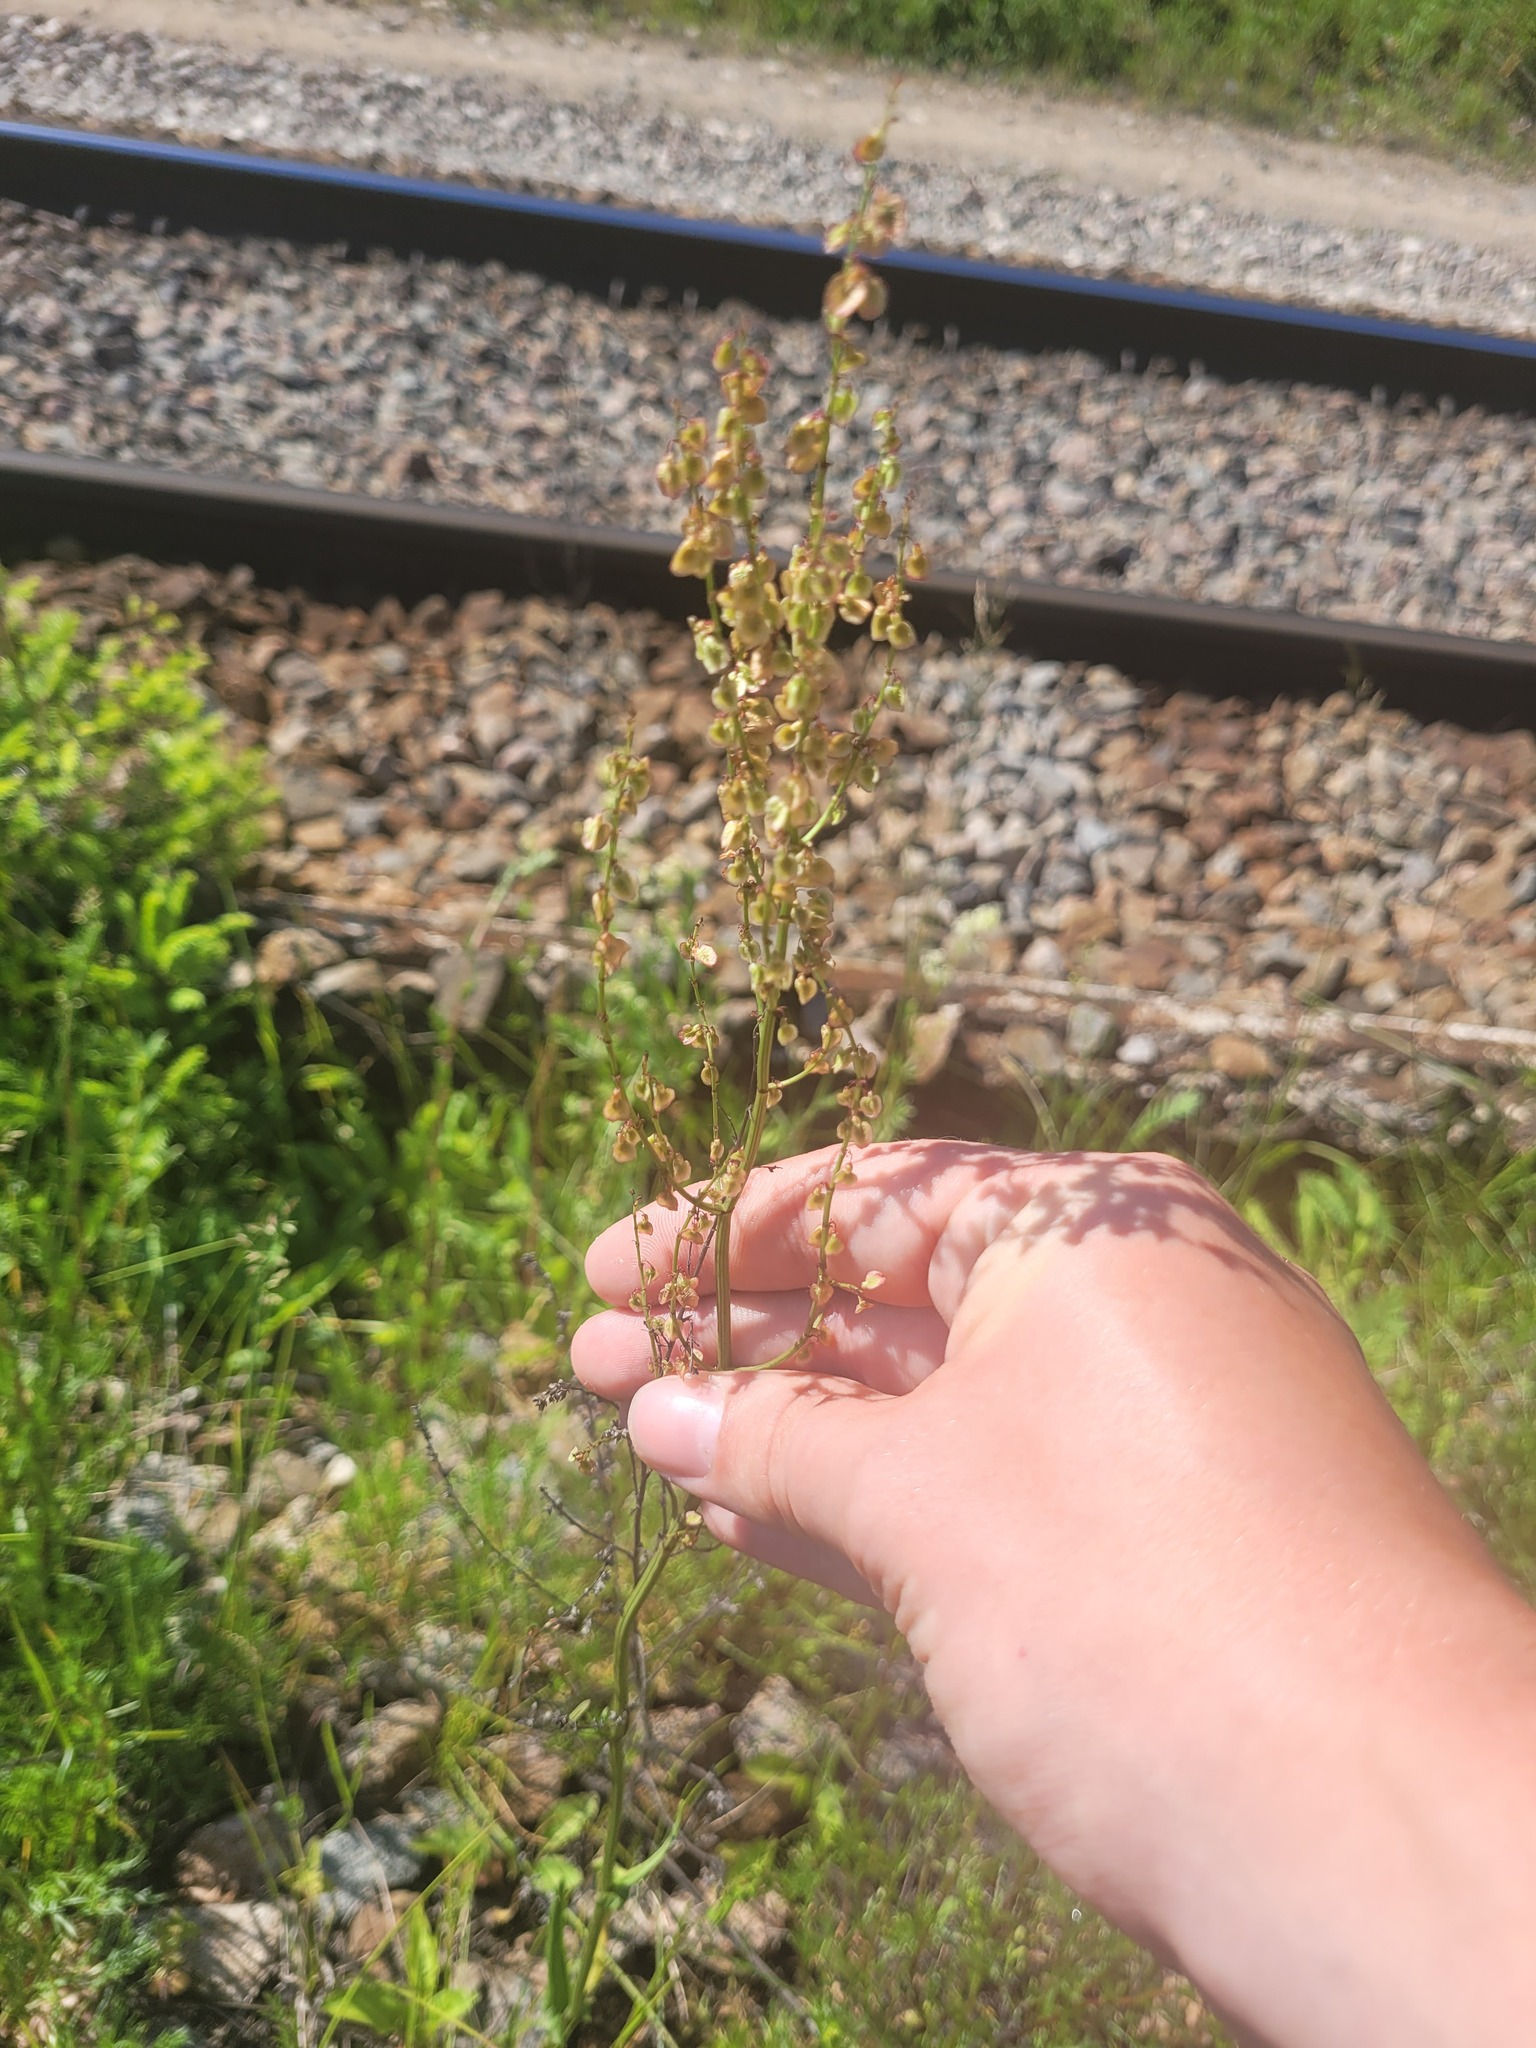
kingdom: Plantae
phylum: Tracheophyta
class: Magnoliopsida
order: Caryophyllales
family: Polygonaceae
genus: Rumex
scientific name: Rumex acetosa
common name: Garden sorrel
